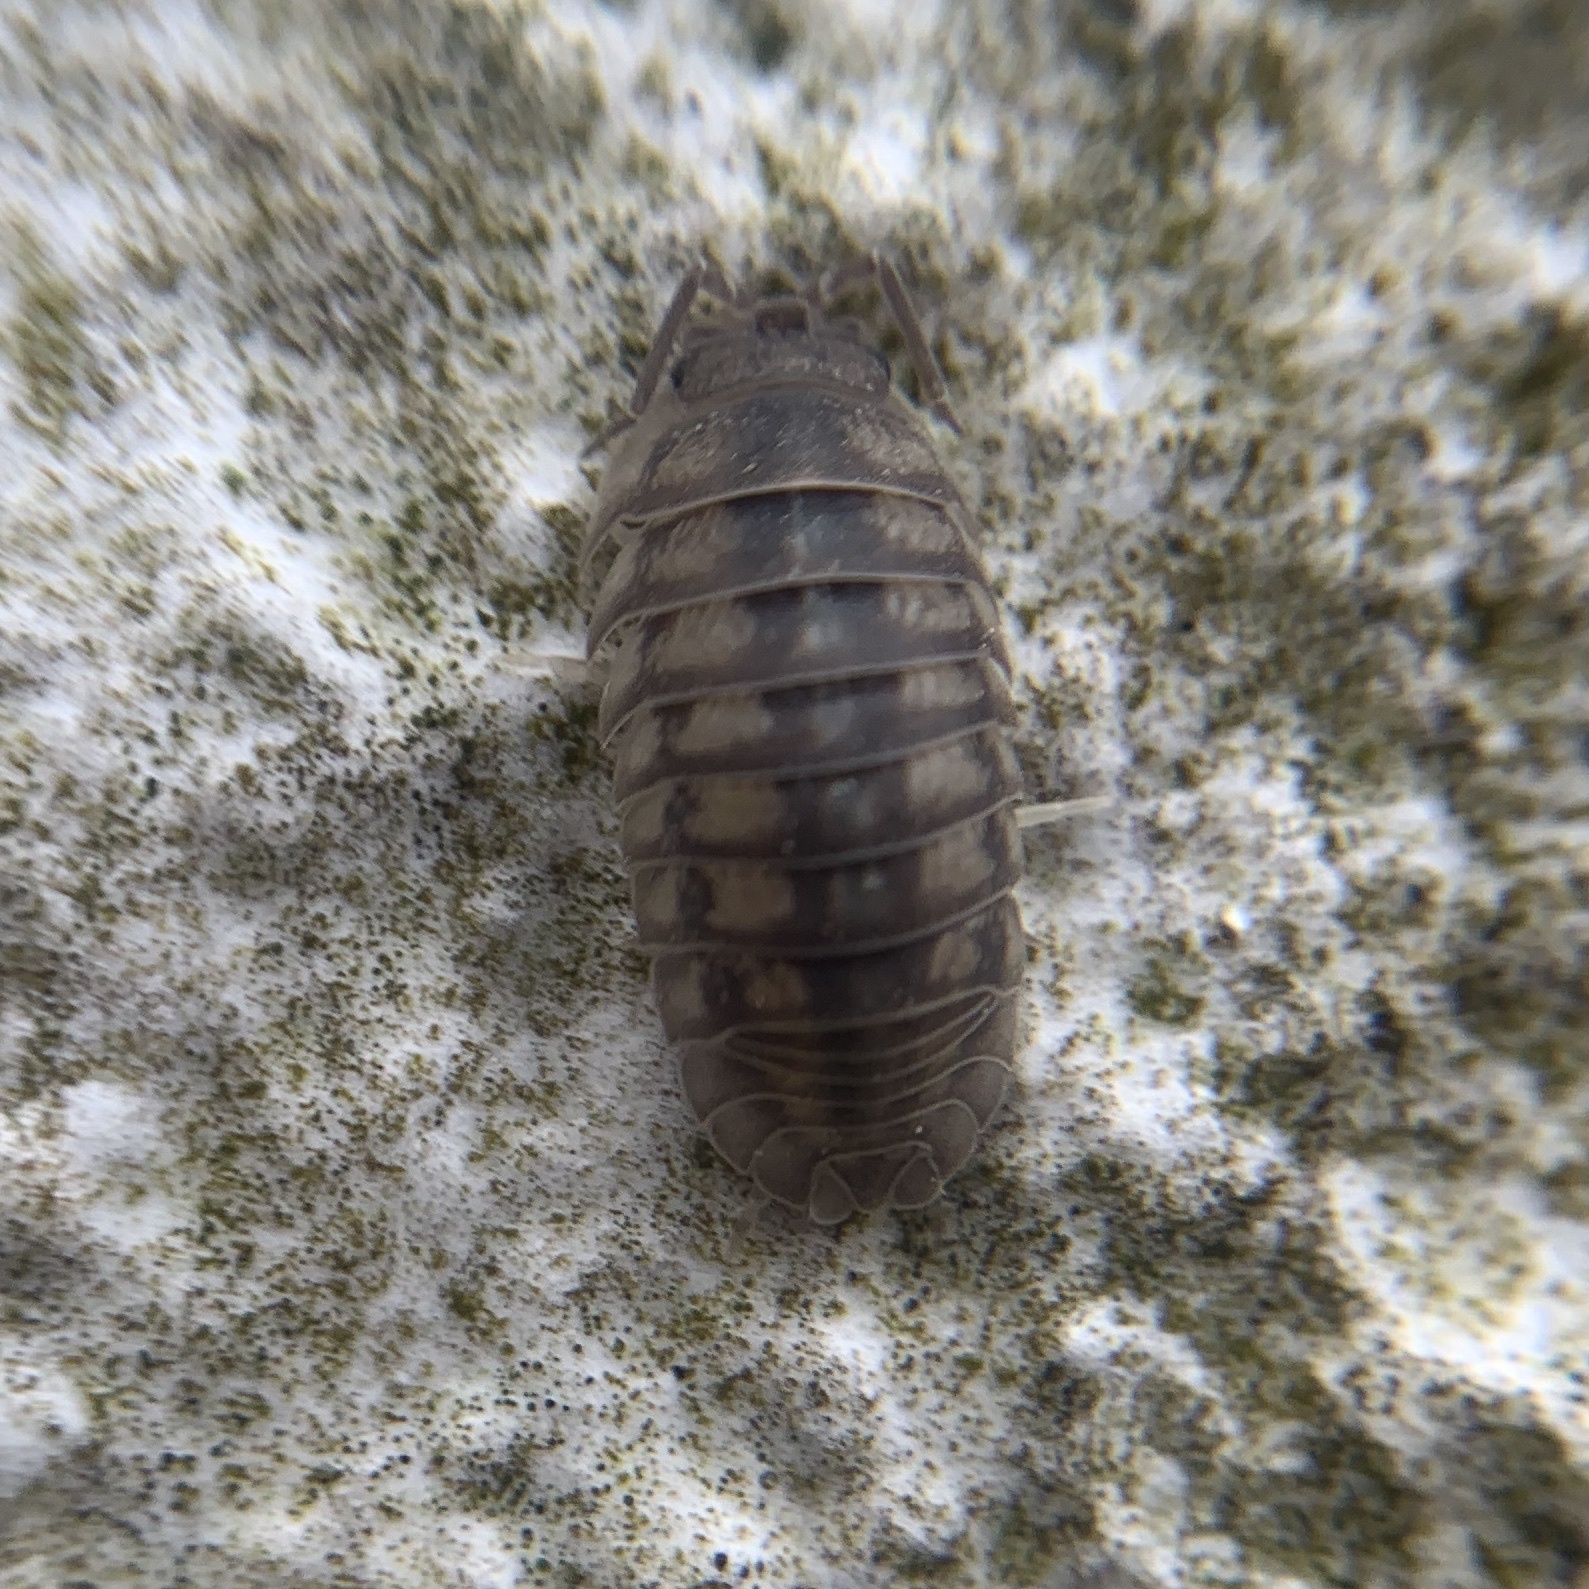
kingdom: Animalia
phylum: Arthropoda
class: Malacostraca
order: Isopoda
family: Armadillidiidae
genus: Armadillidium
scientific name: Armadillidium nasatum
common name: Isopod
